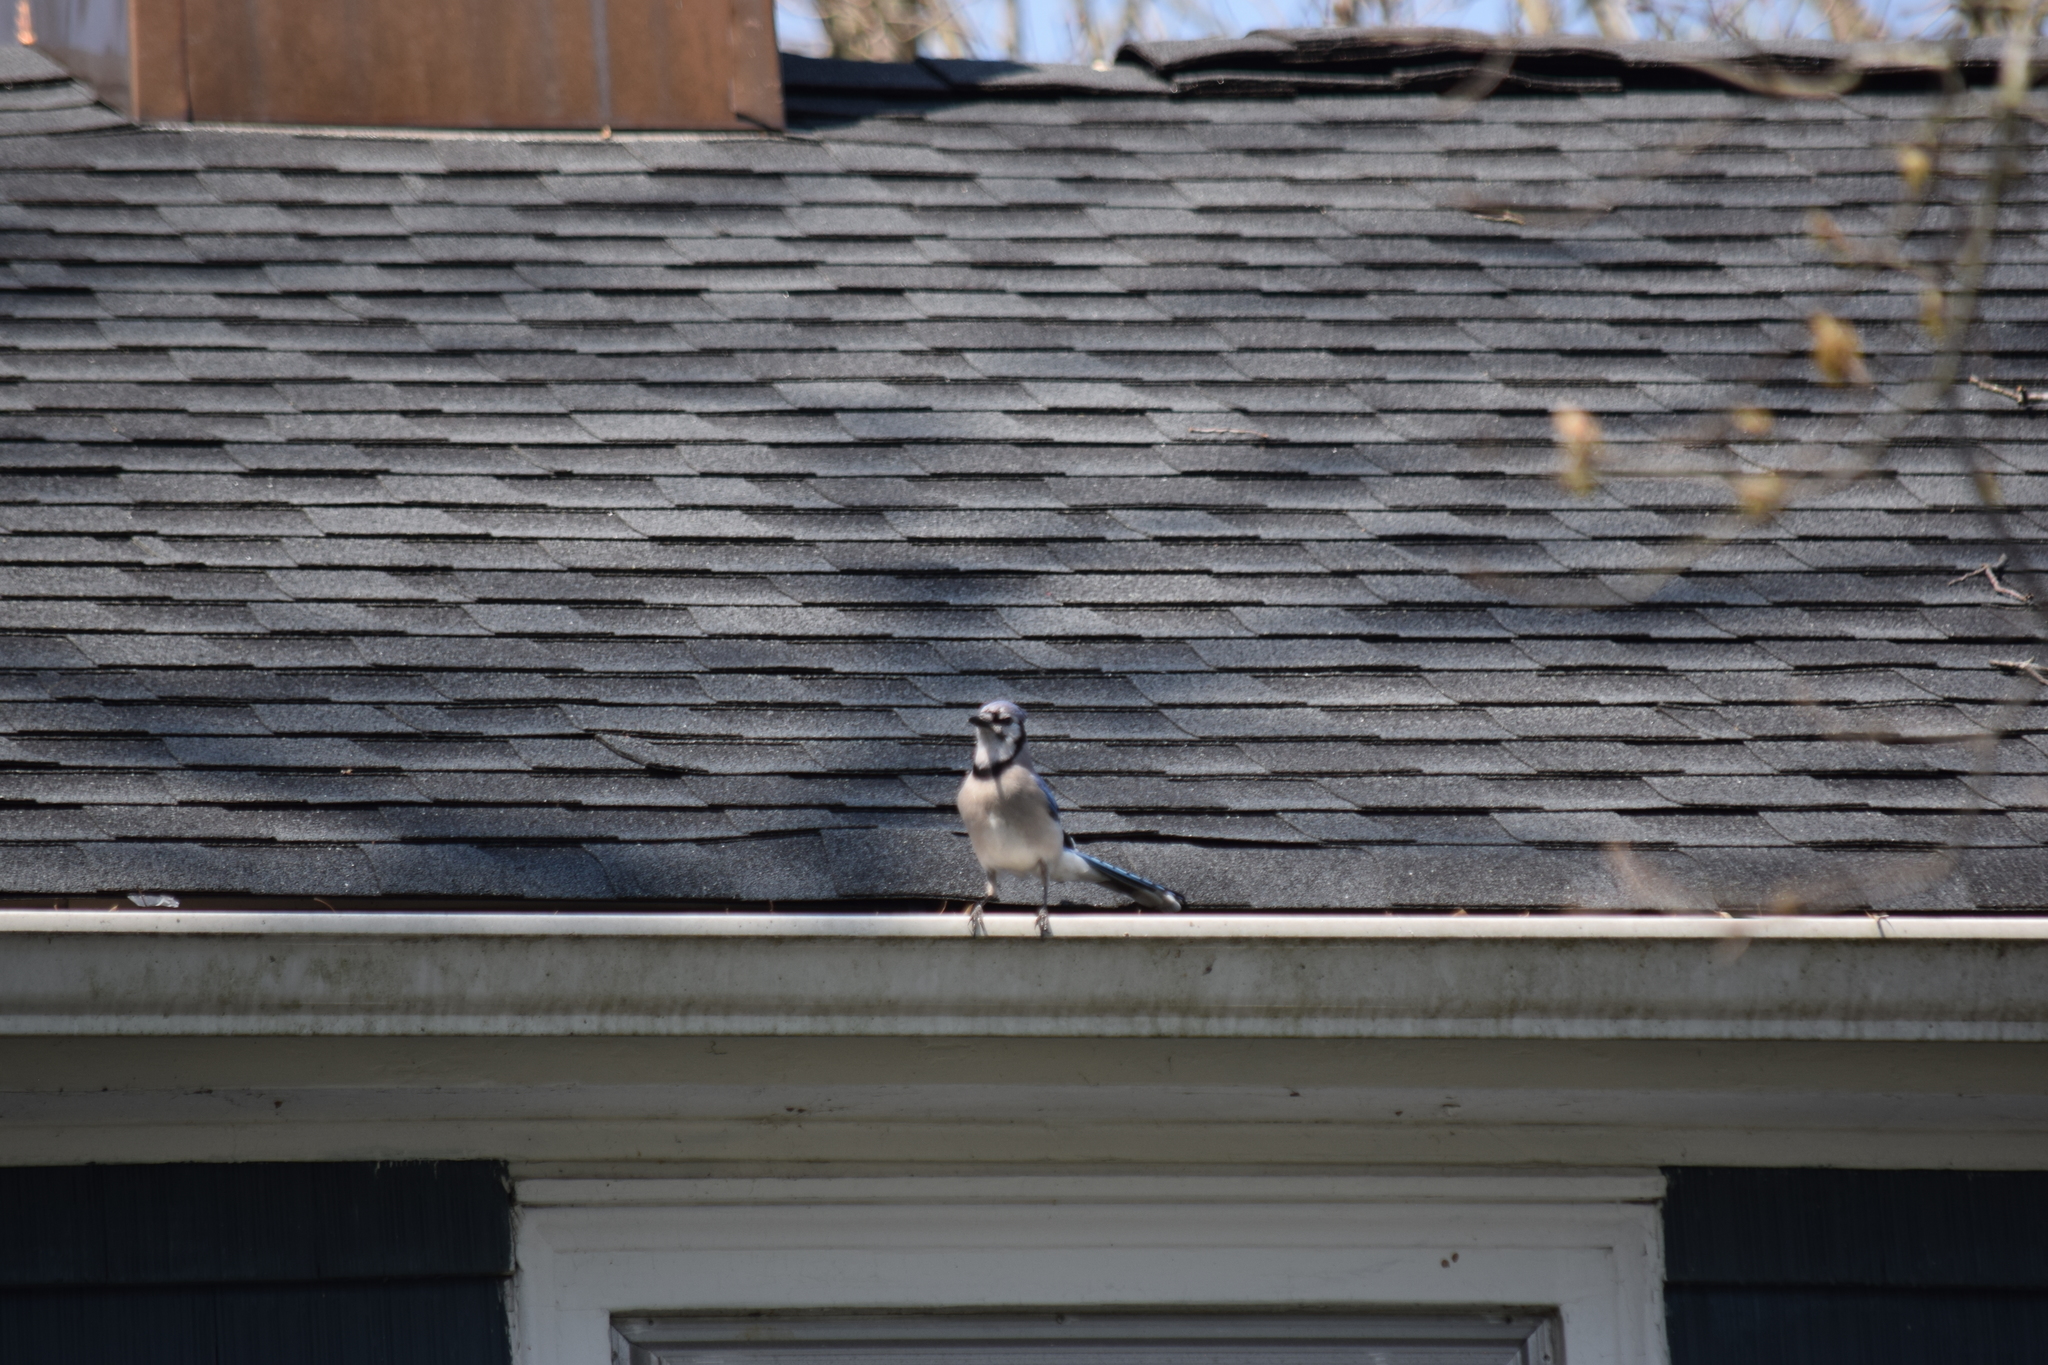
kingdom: Animalia
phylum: Chordata
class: Aves
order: Passeriformes
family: Corvidae
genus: Cyanocitta
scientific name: Cyanocitta cristata
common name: Blue jay
